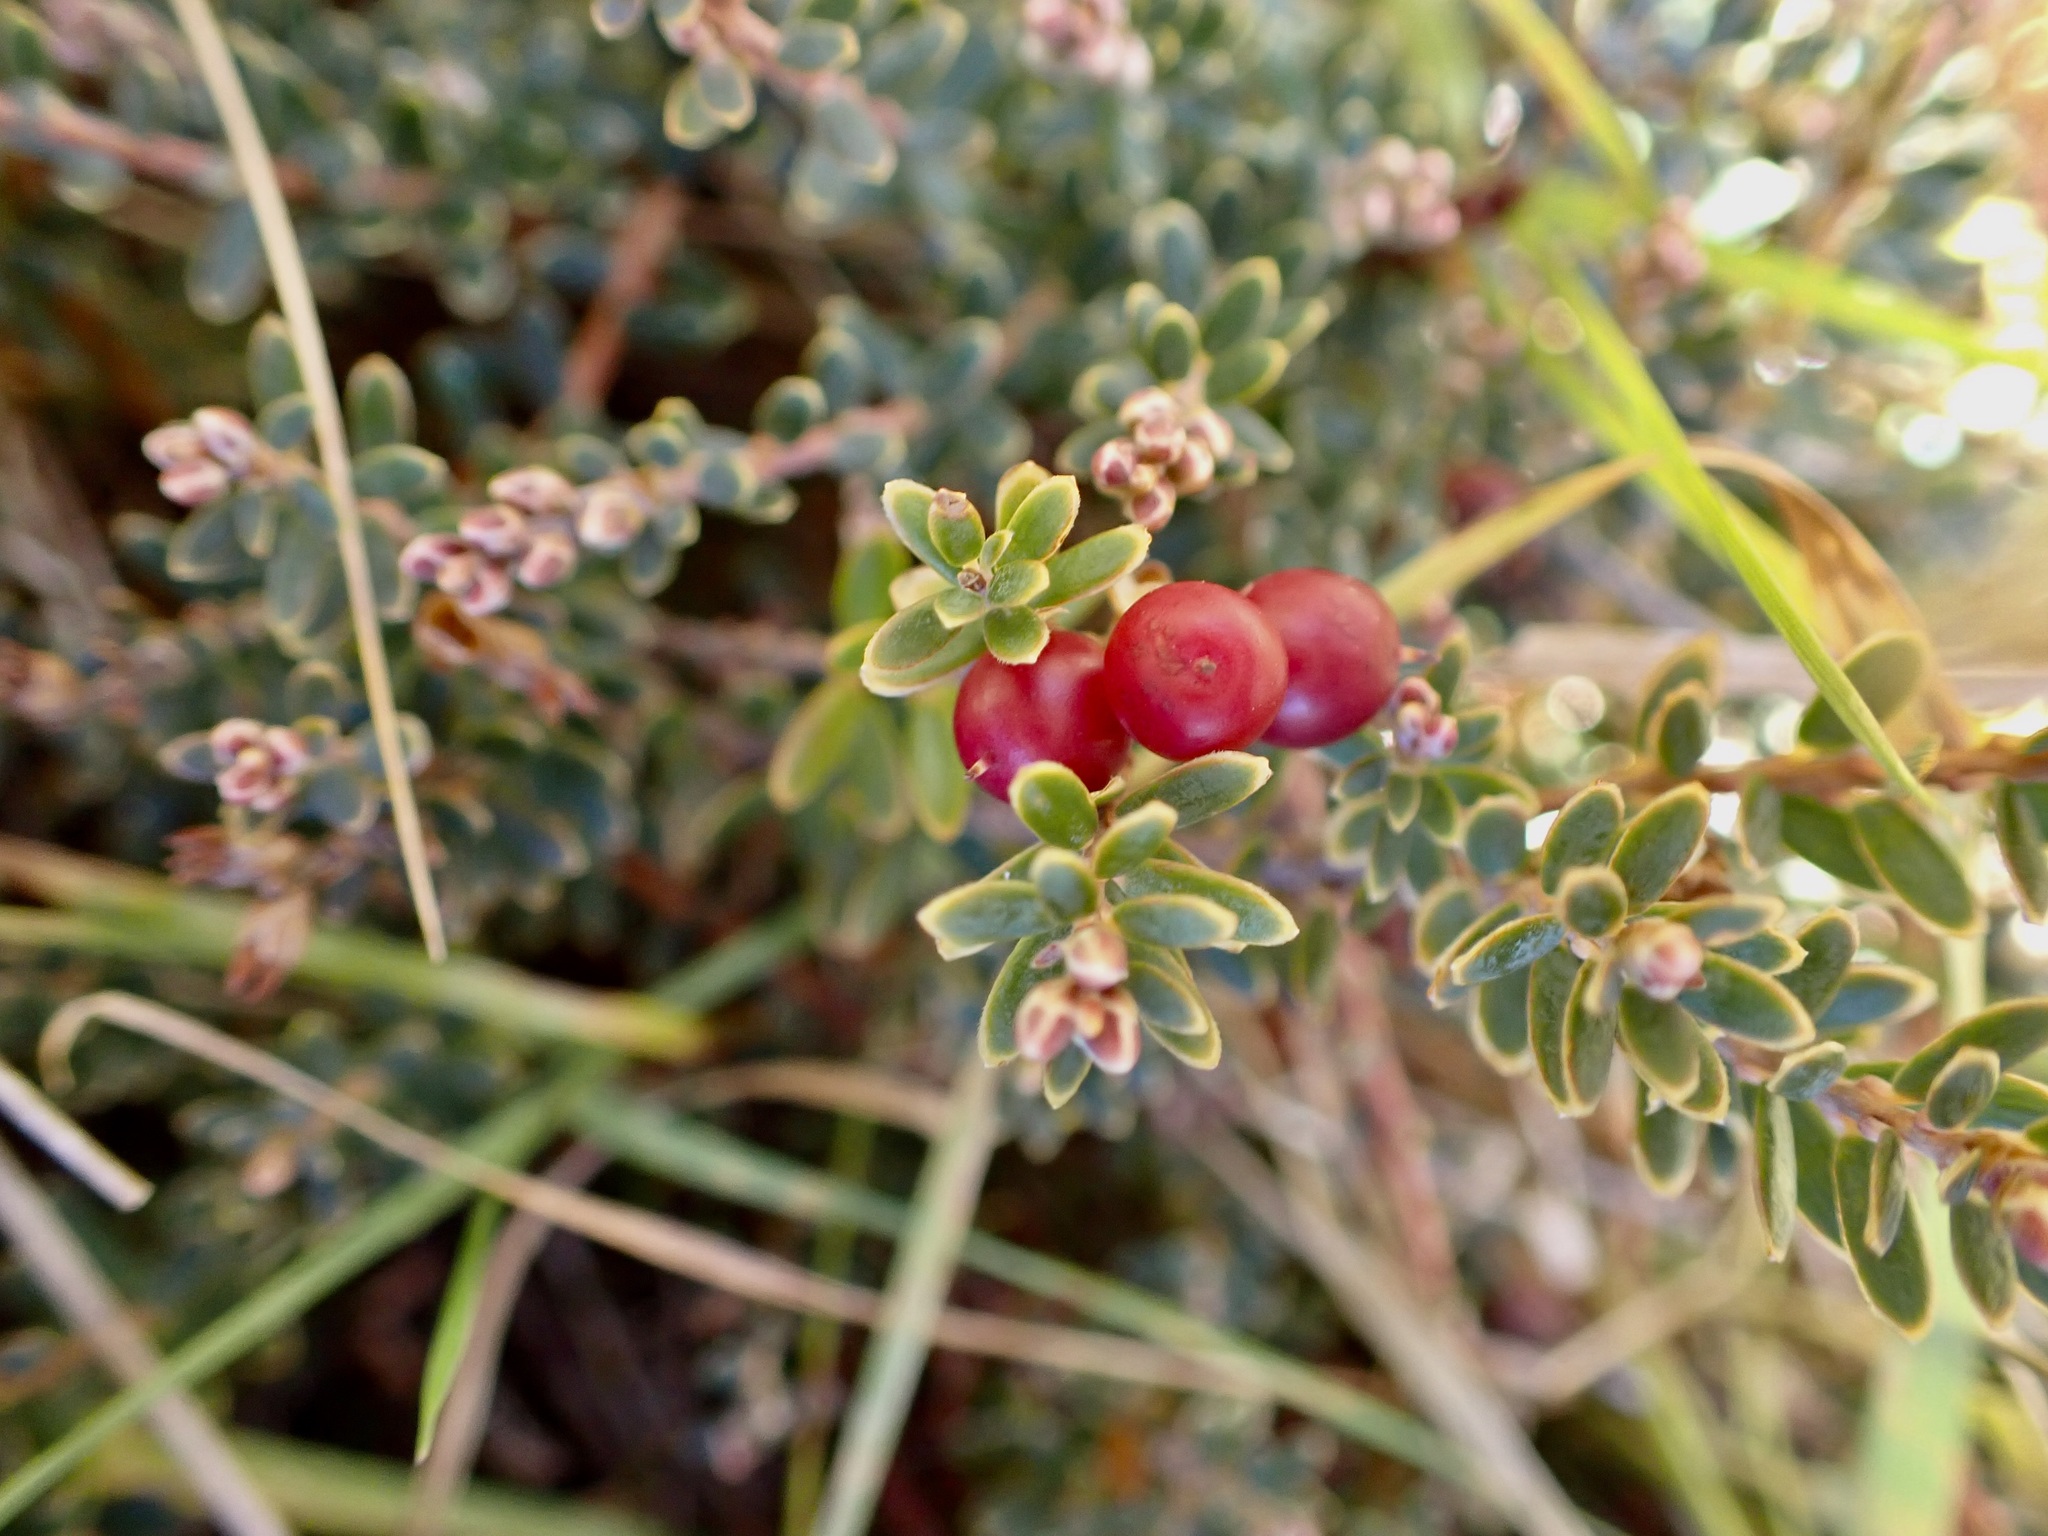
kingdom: Plantae
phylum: Tracheophyta
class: Magnoliopsida
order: Ericales
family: Ericaceae
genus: Acrothamnus
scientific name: Acrothamnus colensoi
